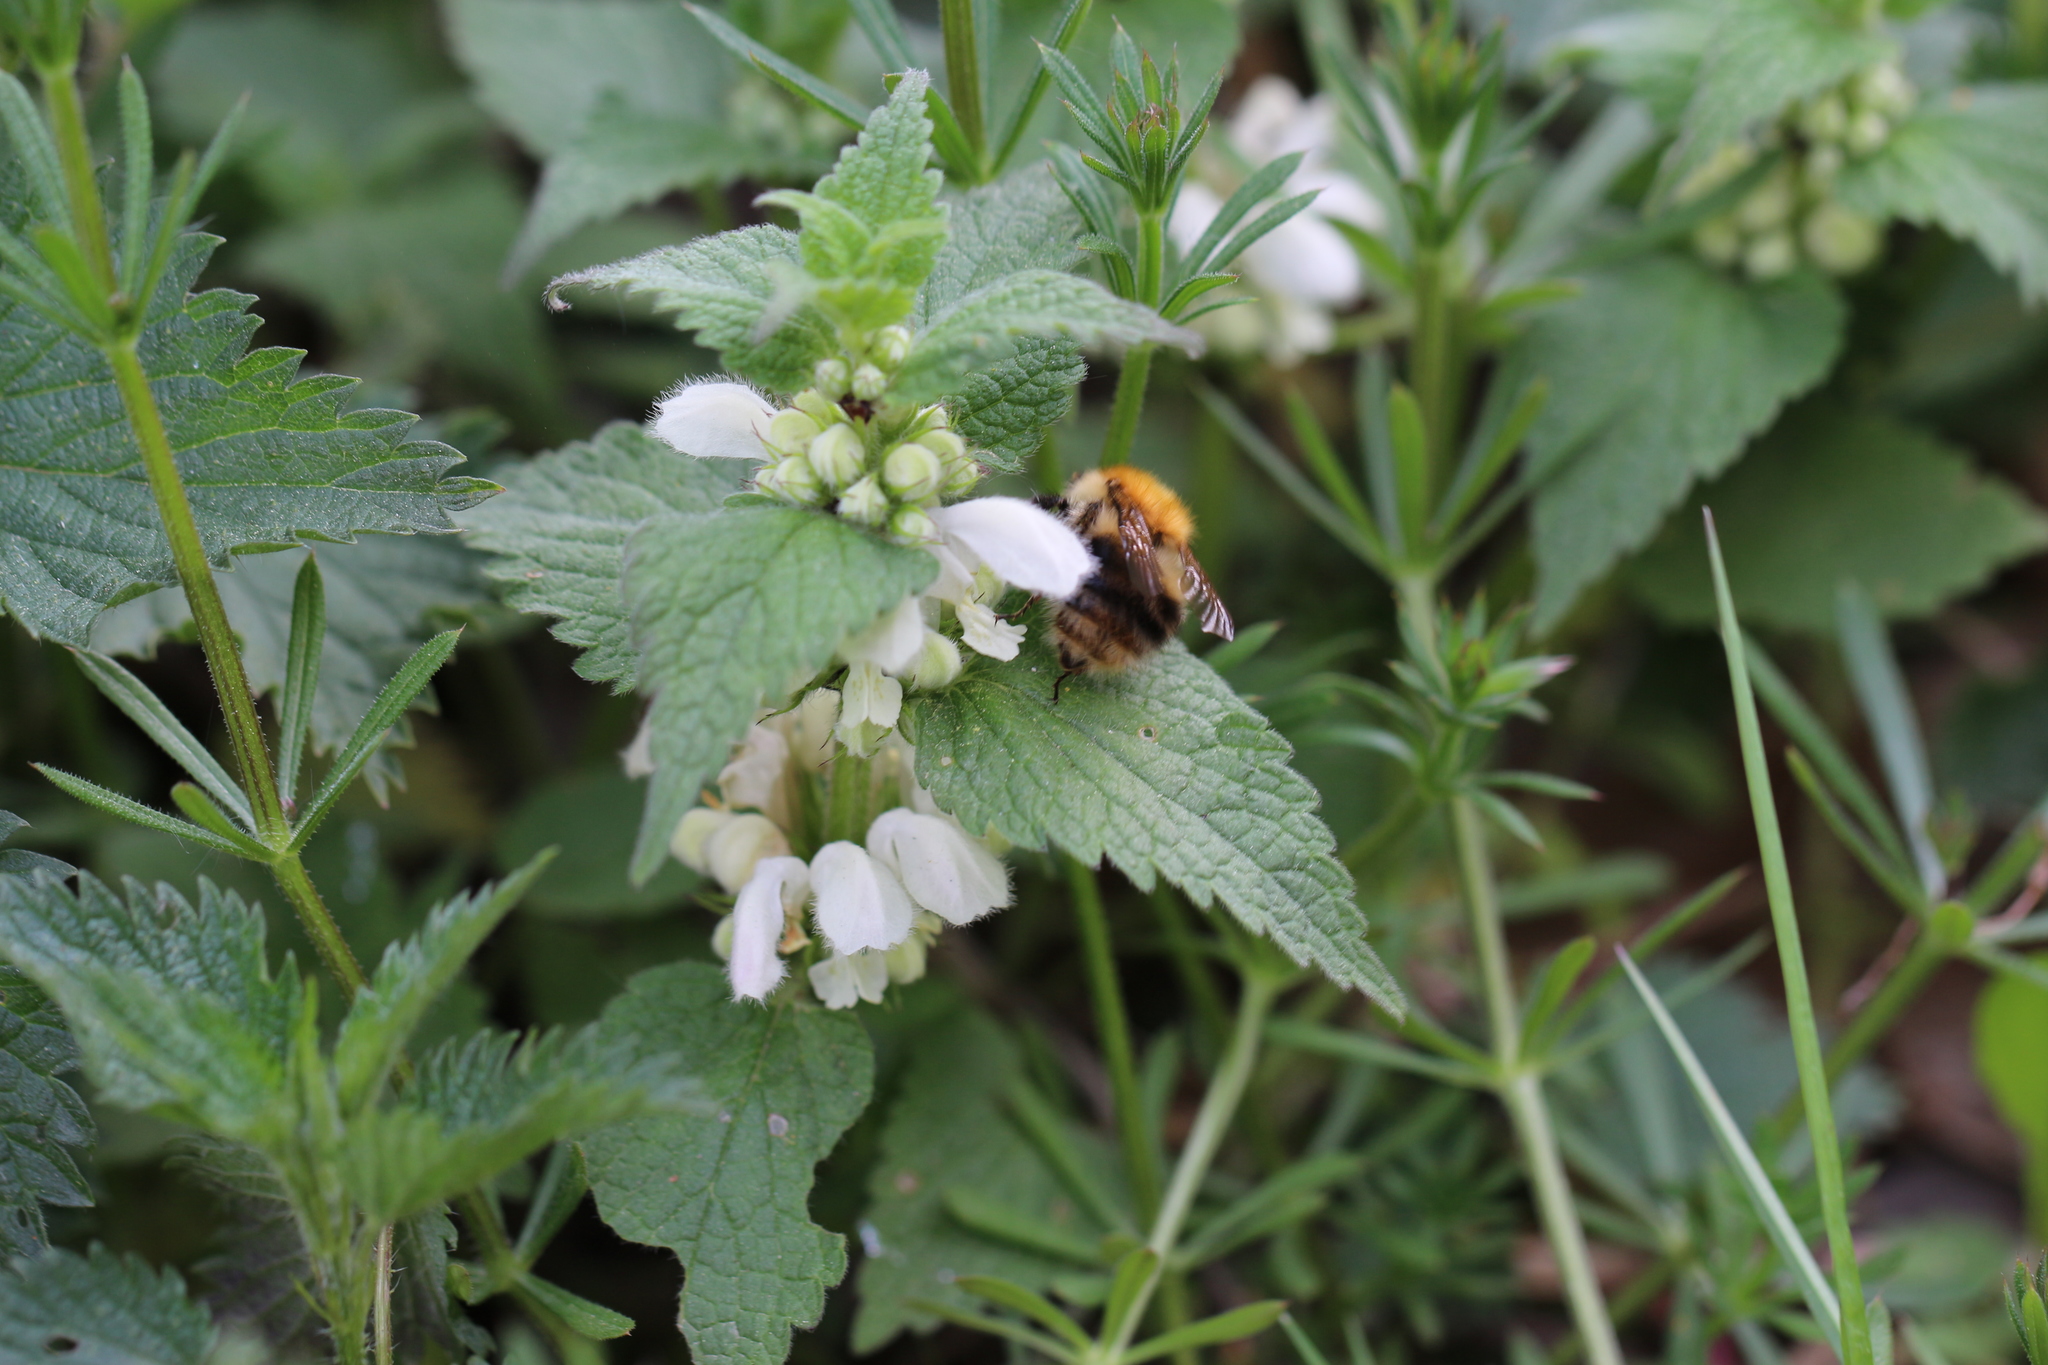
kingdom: Animalia
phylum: Arthropoda
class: Insecta
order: Hymenoptera
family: Apidae
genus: Bombus
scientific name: Bombus pascuorum
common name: Common carder bee
